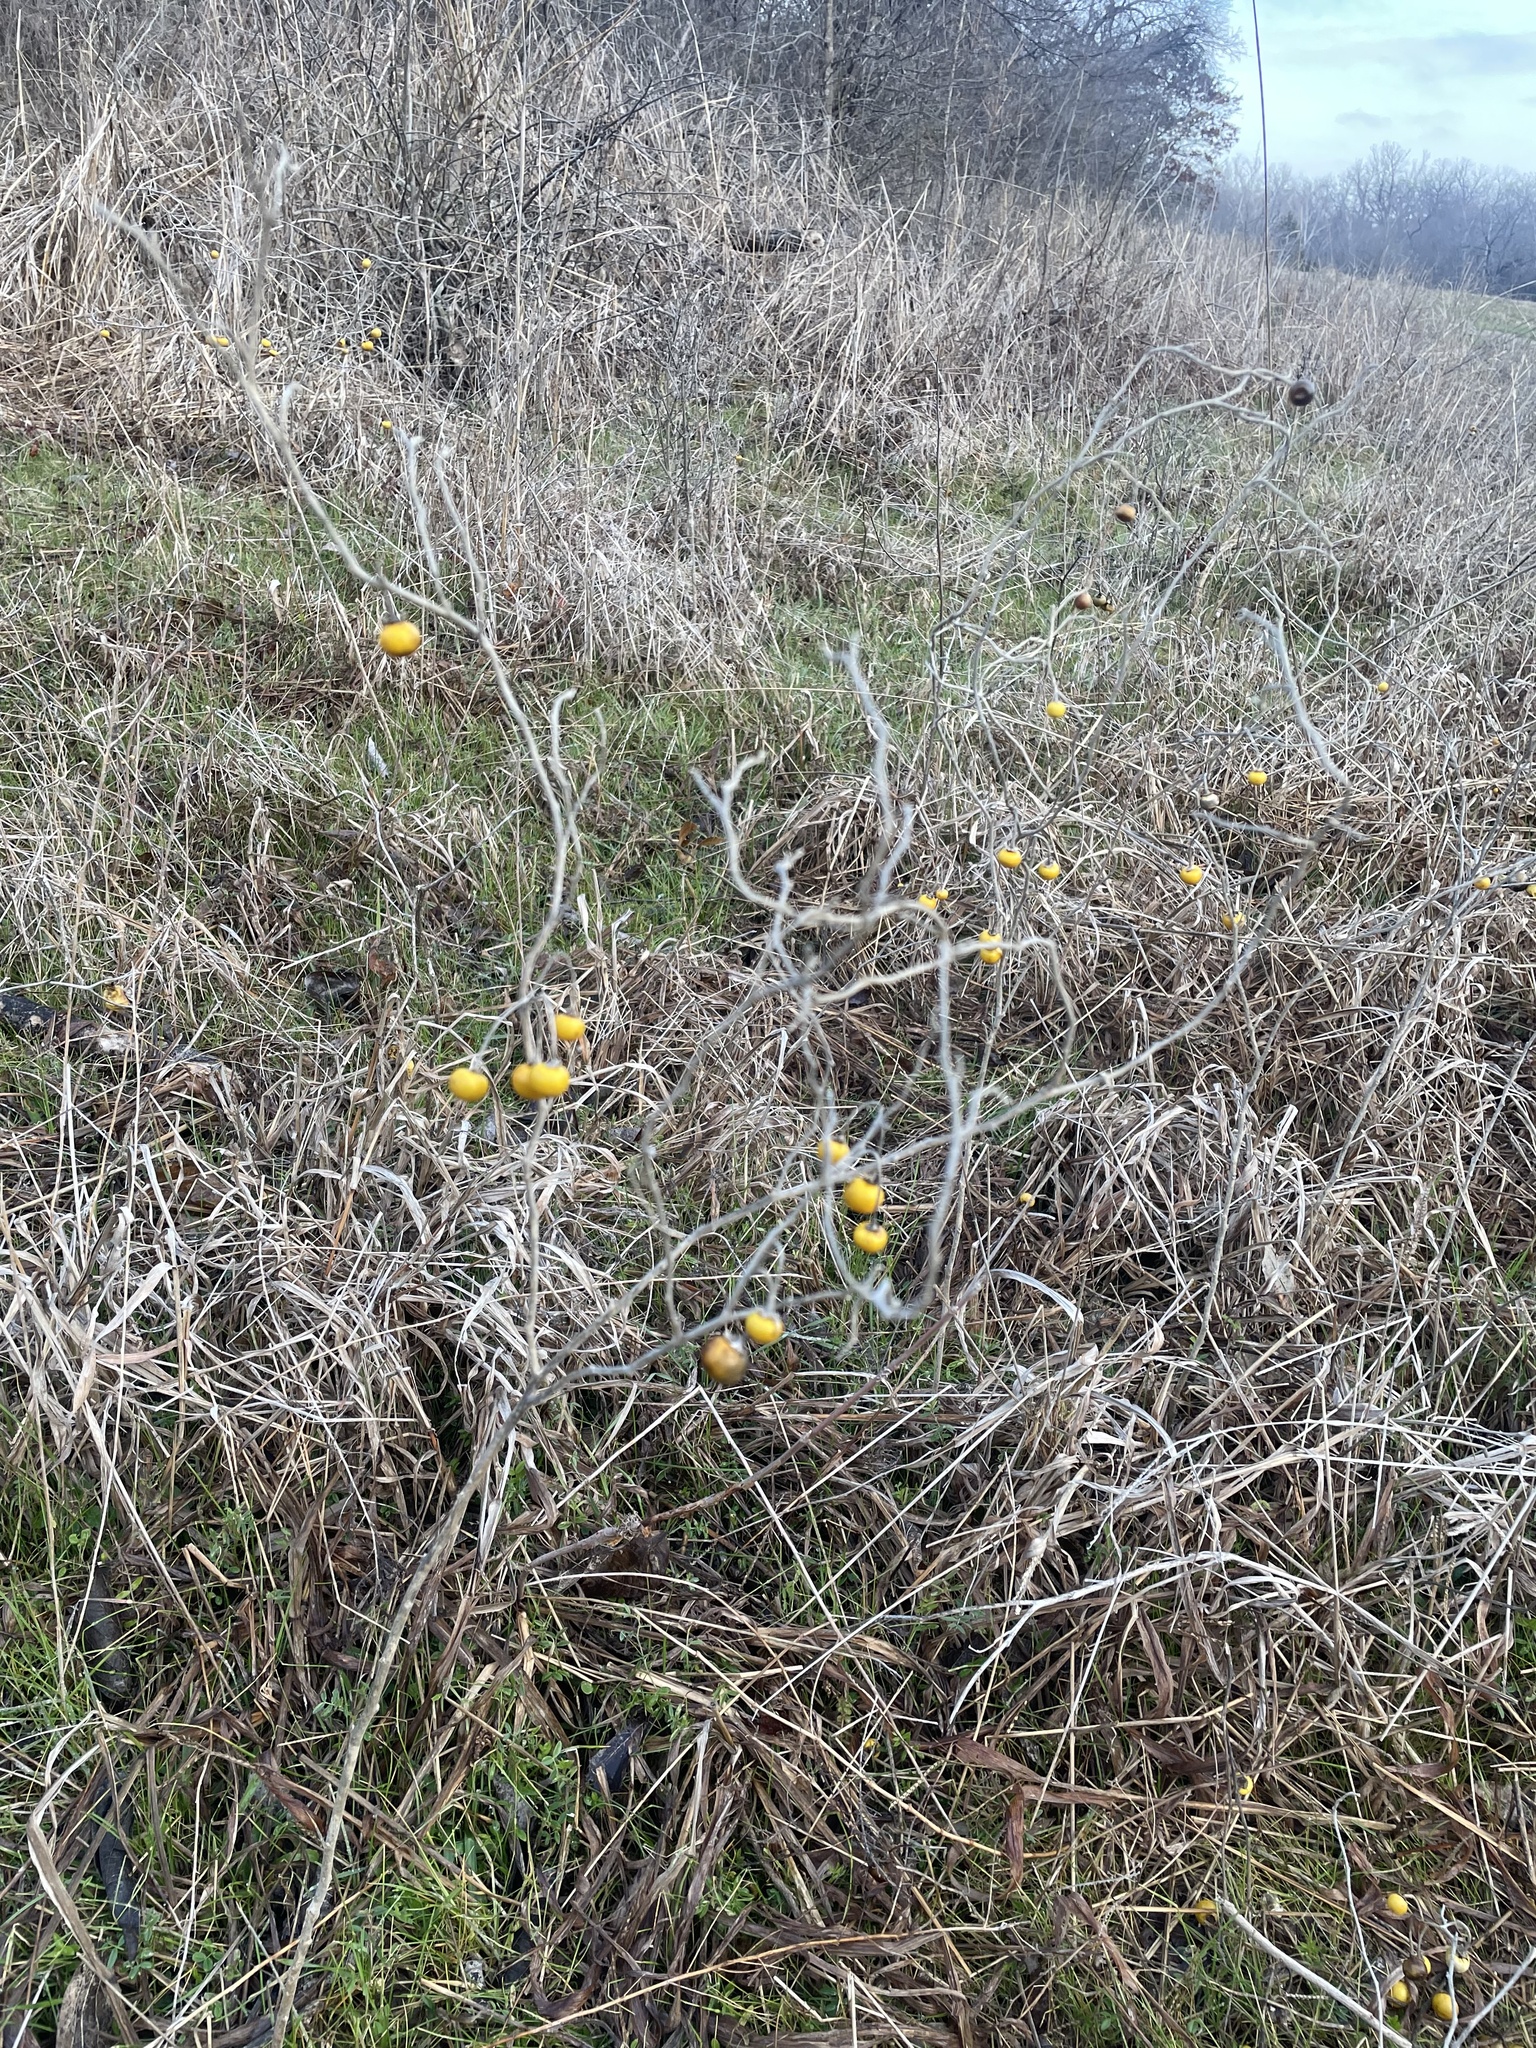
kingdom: Plantae
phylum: Tracheophyta
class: Magnoliopsida
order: Solanales
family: Solanaceae
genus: Solanum
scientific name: Solanum elaeagnifolium
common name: Silverleaf nightshade
